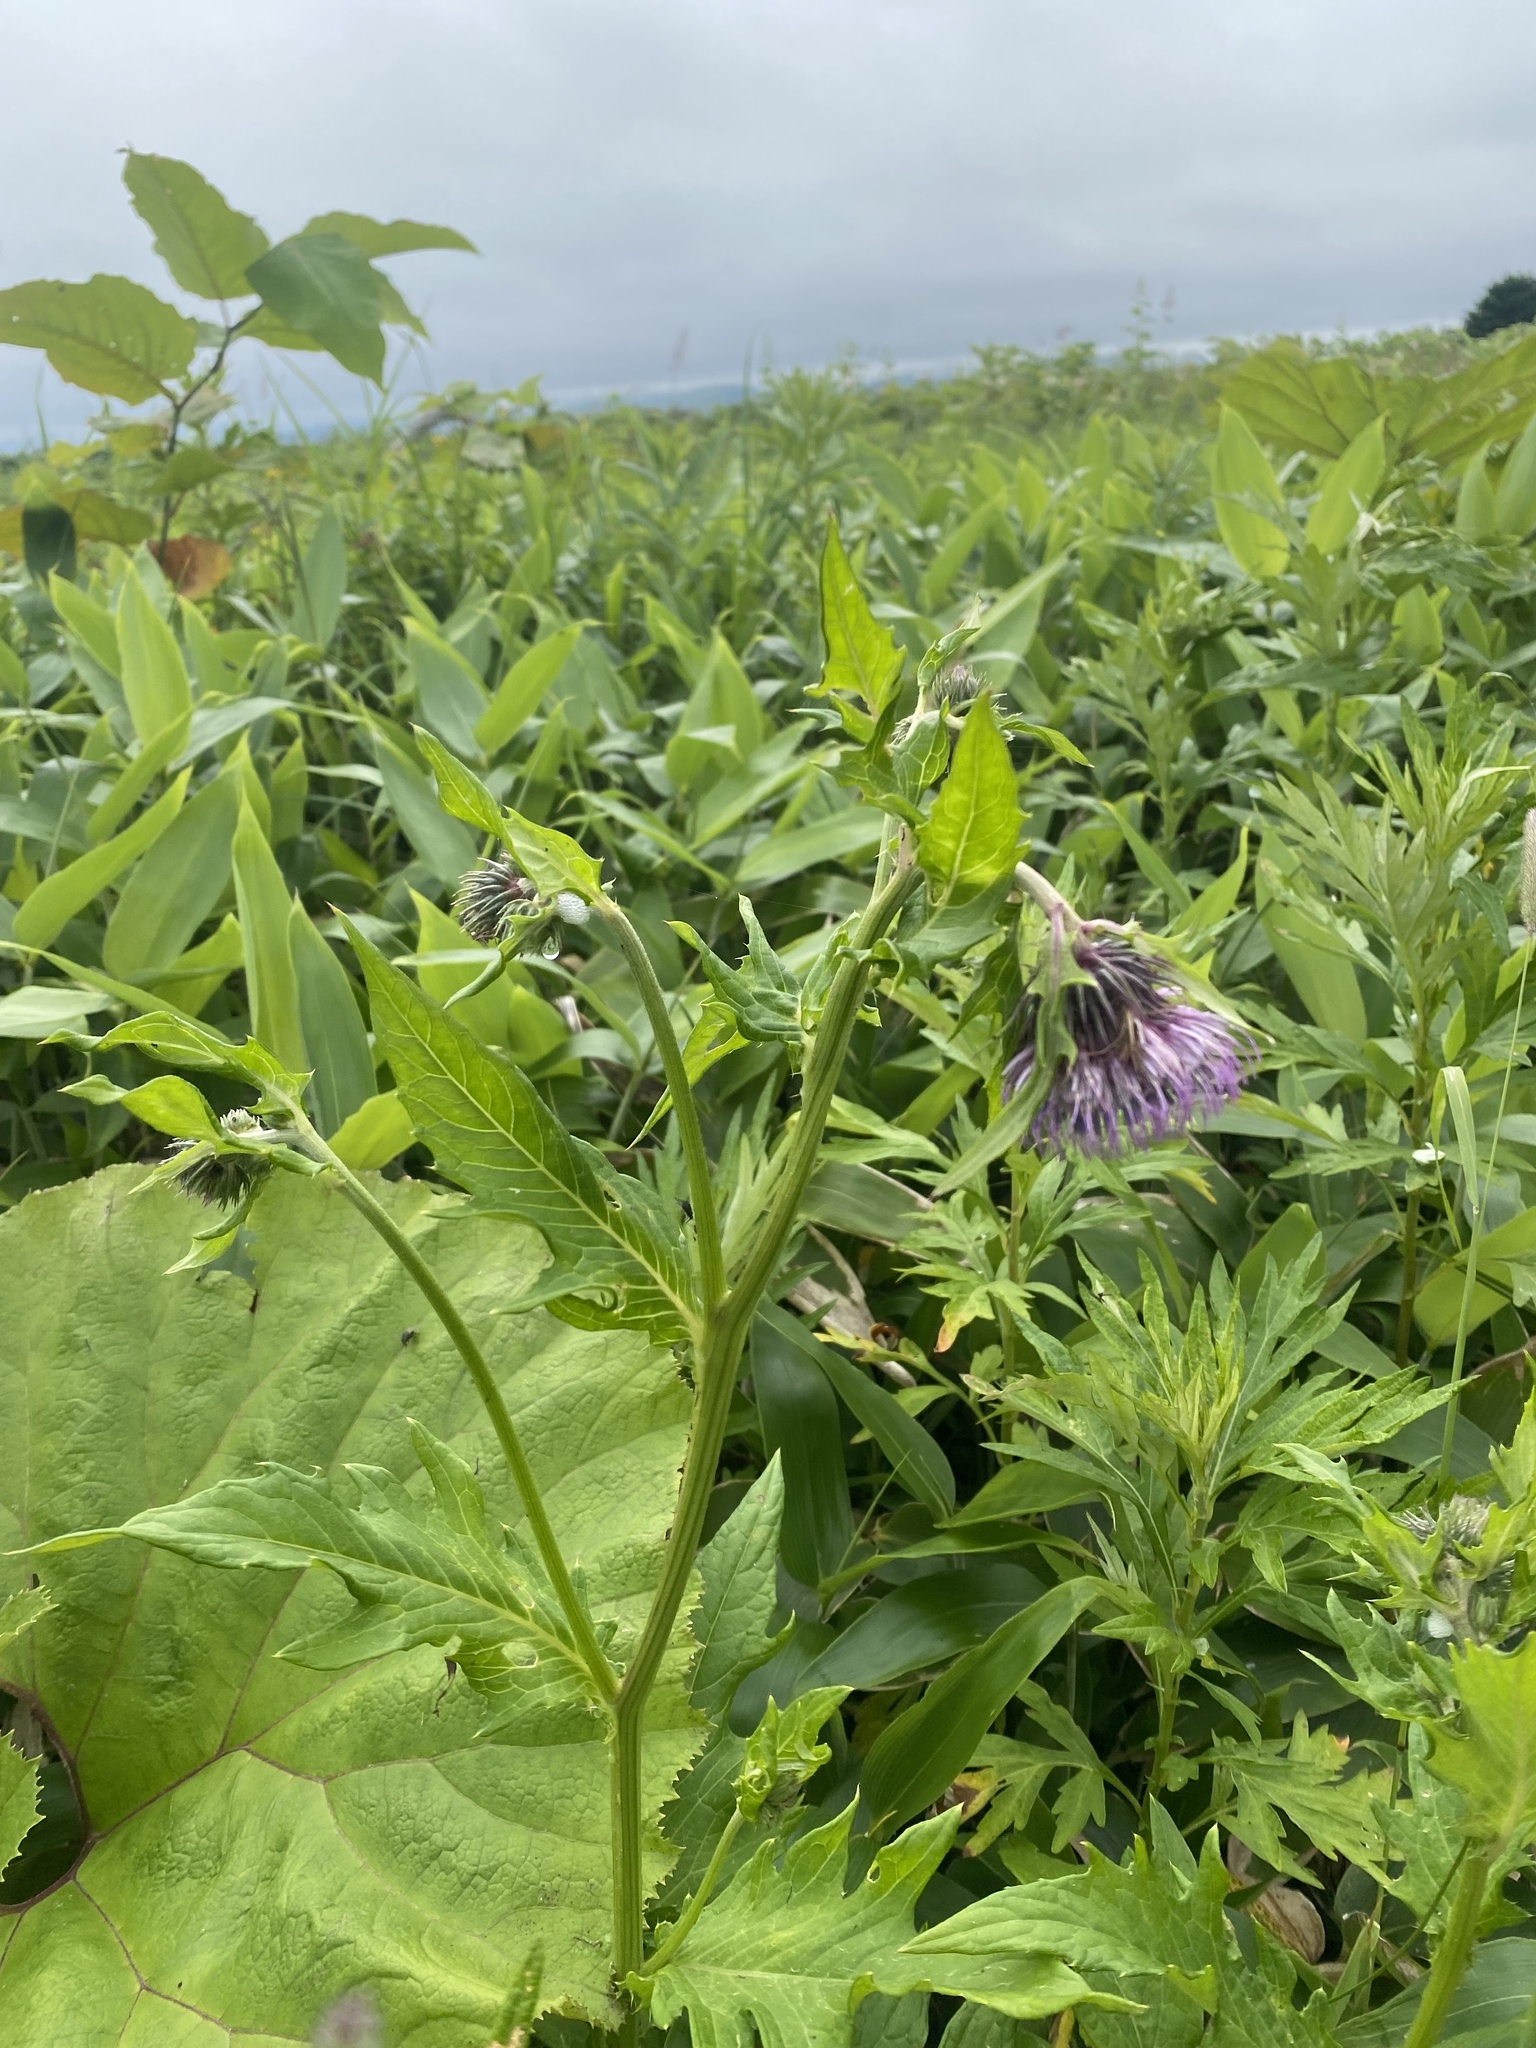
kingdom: Plantae
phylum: Tracheophyta
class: Magnoliopsida
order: Asterales
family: Asteraceae
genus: Cirsium
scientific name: Cirsium kamtschaticum
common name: Kamchatka thistle
